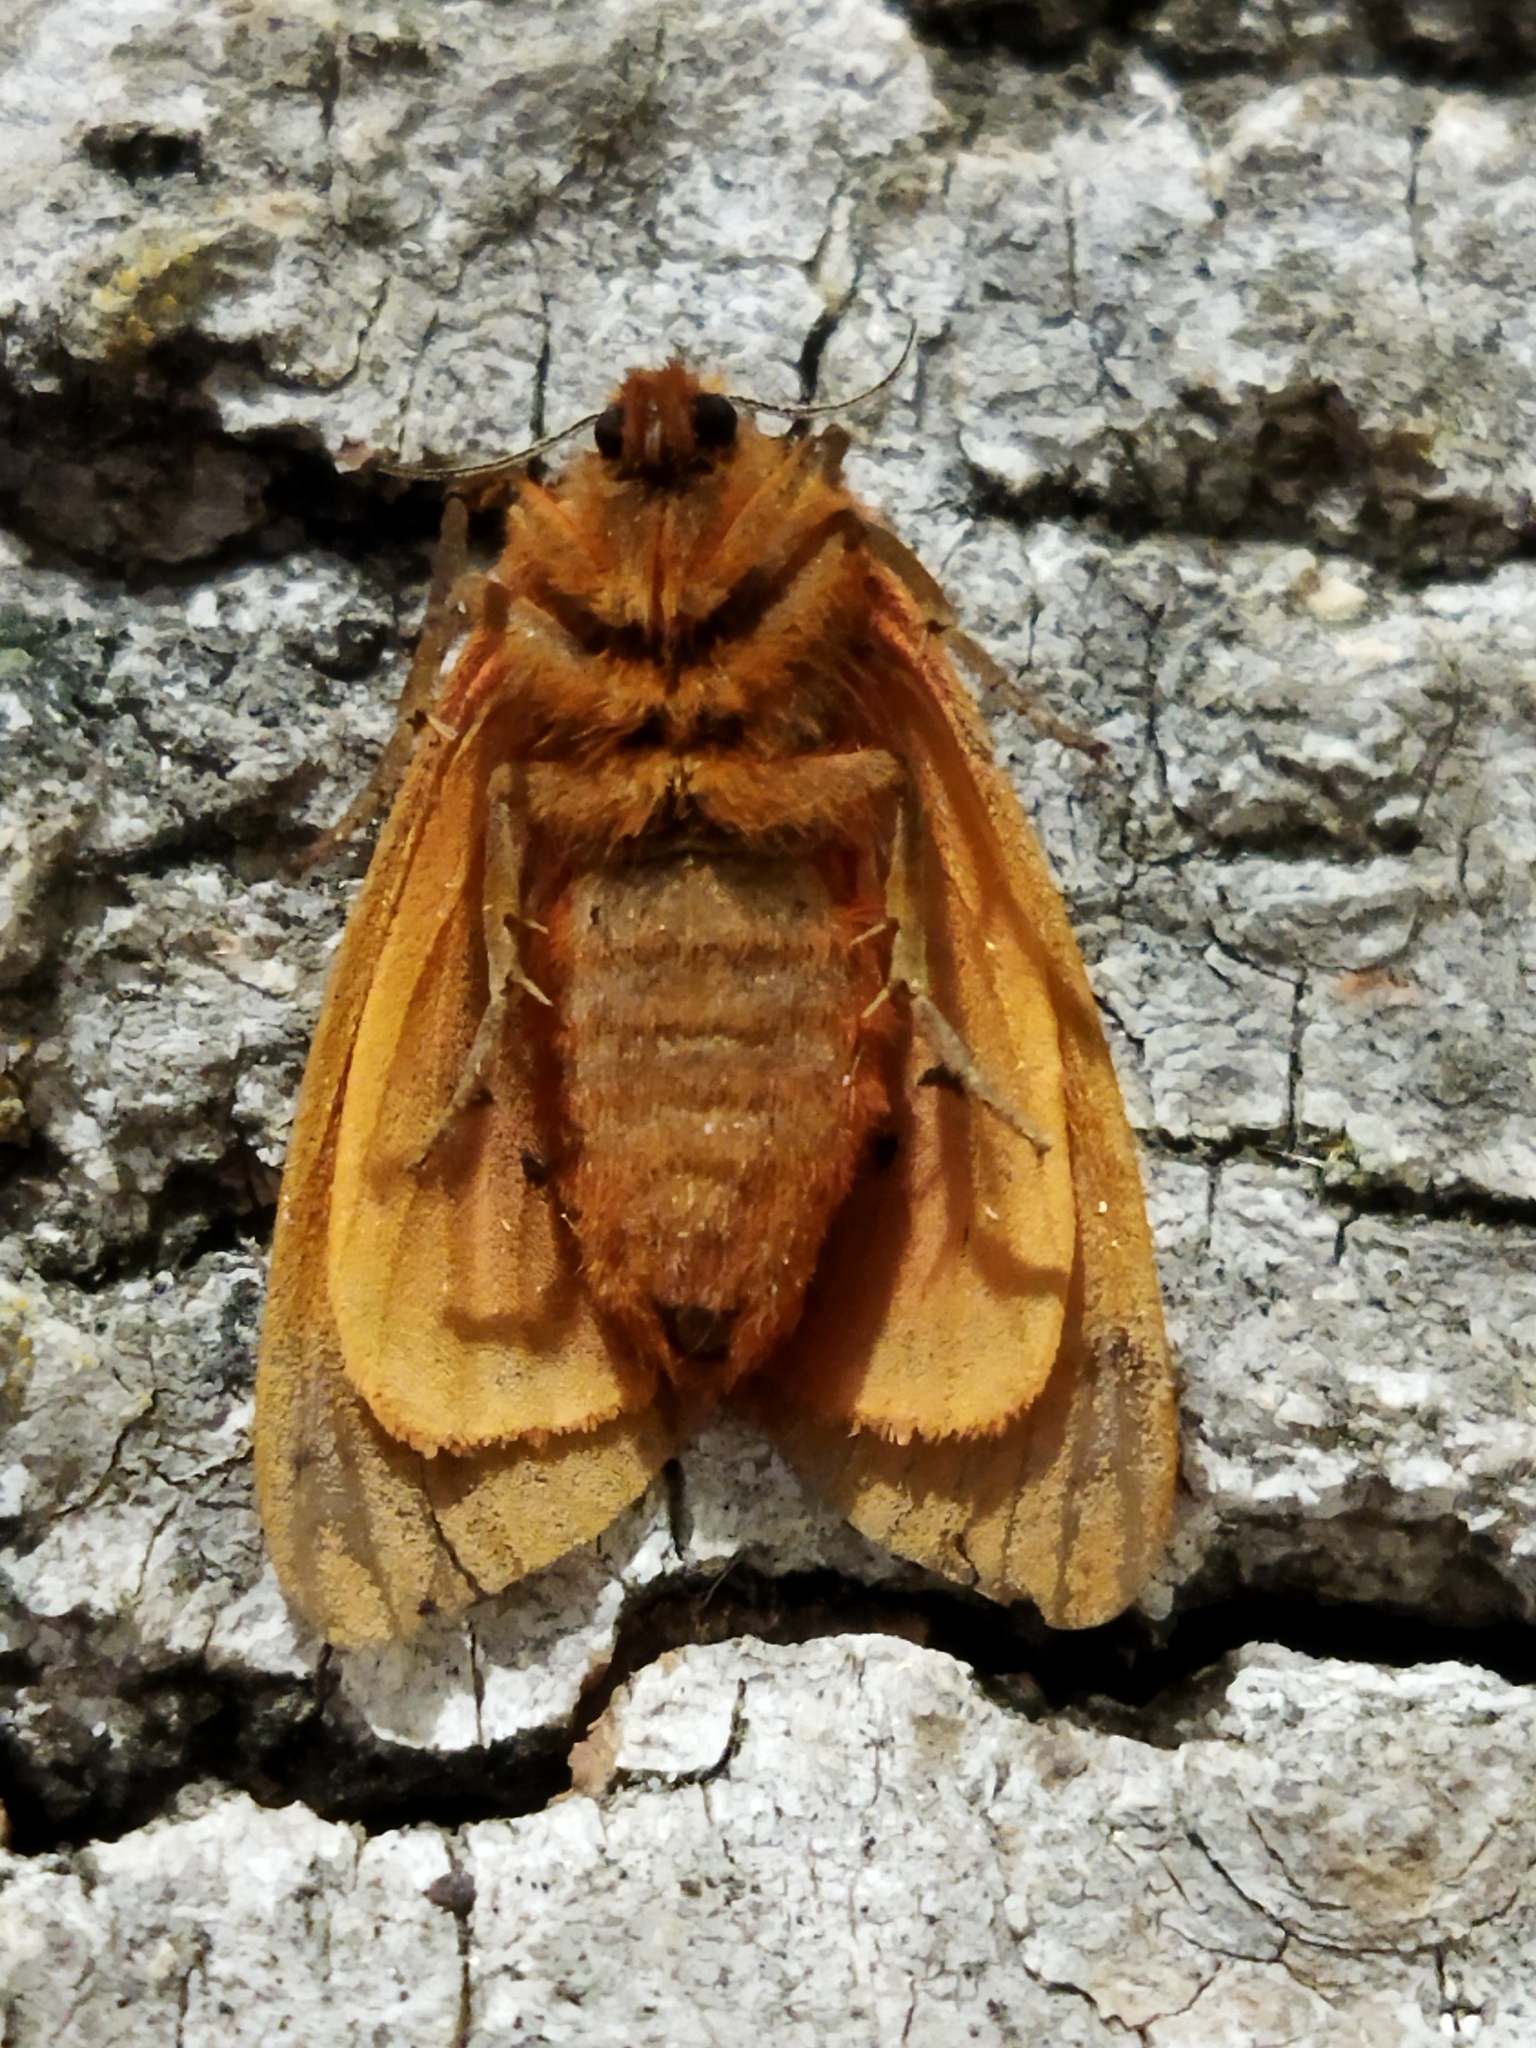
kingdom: Animalia
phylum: Arthropoda
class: Insecta
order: Lepidoptera
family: Erebidae
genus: Phragmatobia
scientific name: Phragmatobia fuliginosa
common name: Ruby tiger
